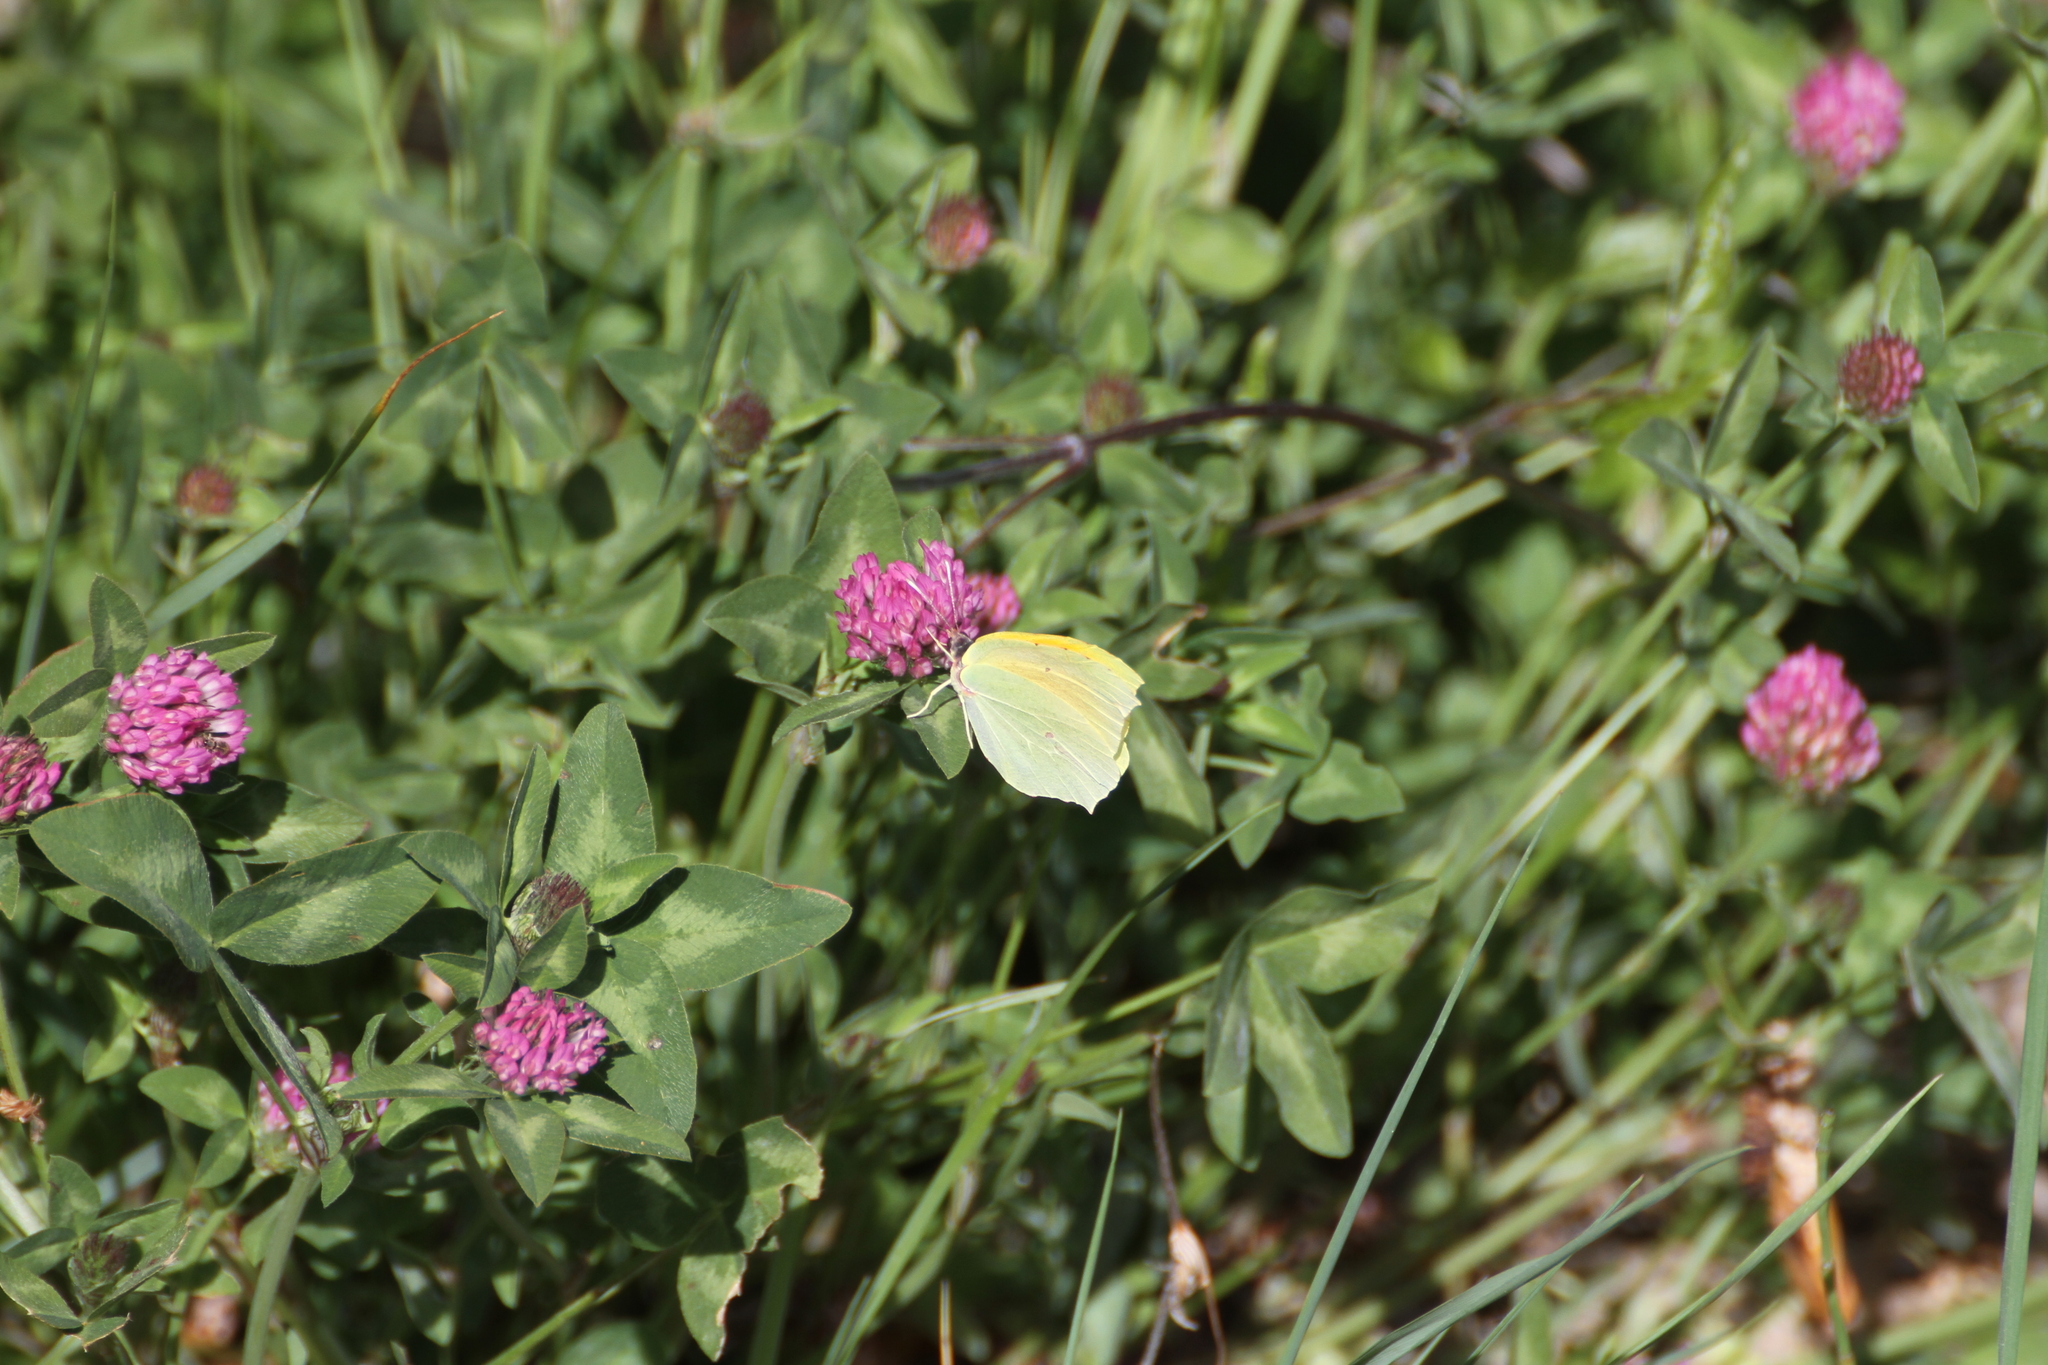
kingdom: Animalia
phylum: Arthropoda
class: Insecta
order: Lepidoptera
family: Pieridae
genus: Gonepteryx
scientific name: Gonepteryx cleopatra
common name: Cleopatra
